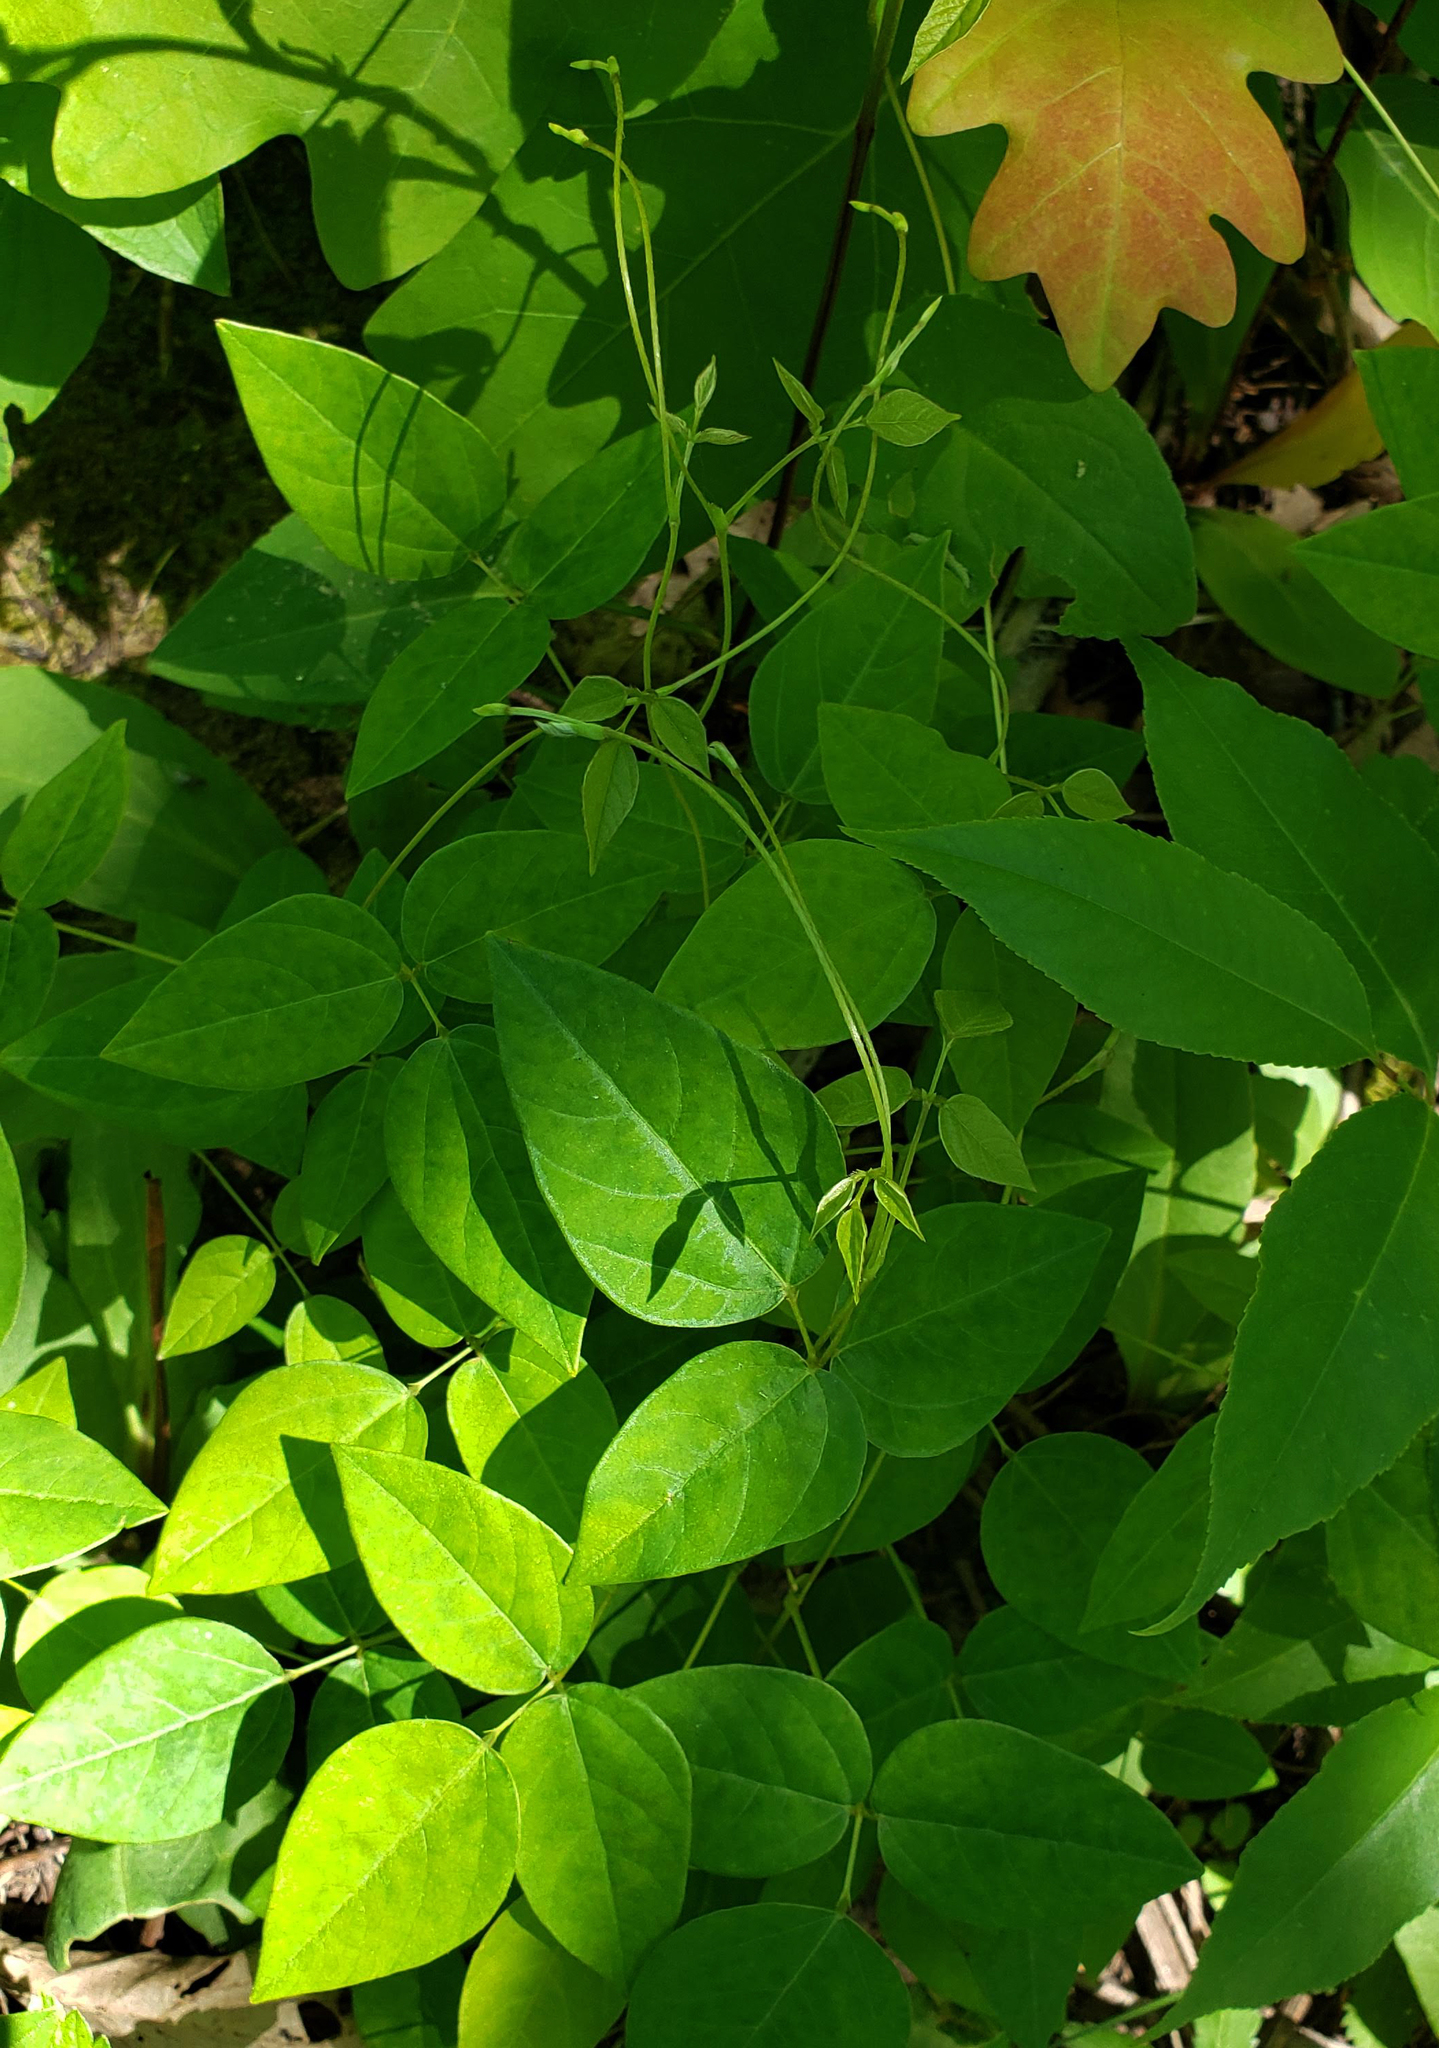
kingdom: Plantae
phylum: Tracheophyta
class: Magnoliopsida
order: Fabales
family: Fabaceae
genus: Amphicarpaea
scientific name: Amphicarpaea bracteata
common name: American hog peanut
